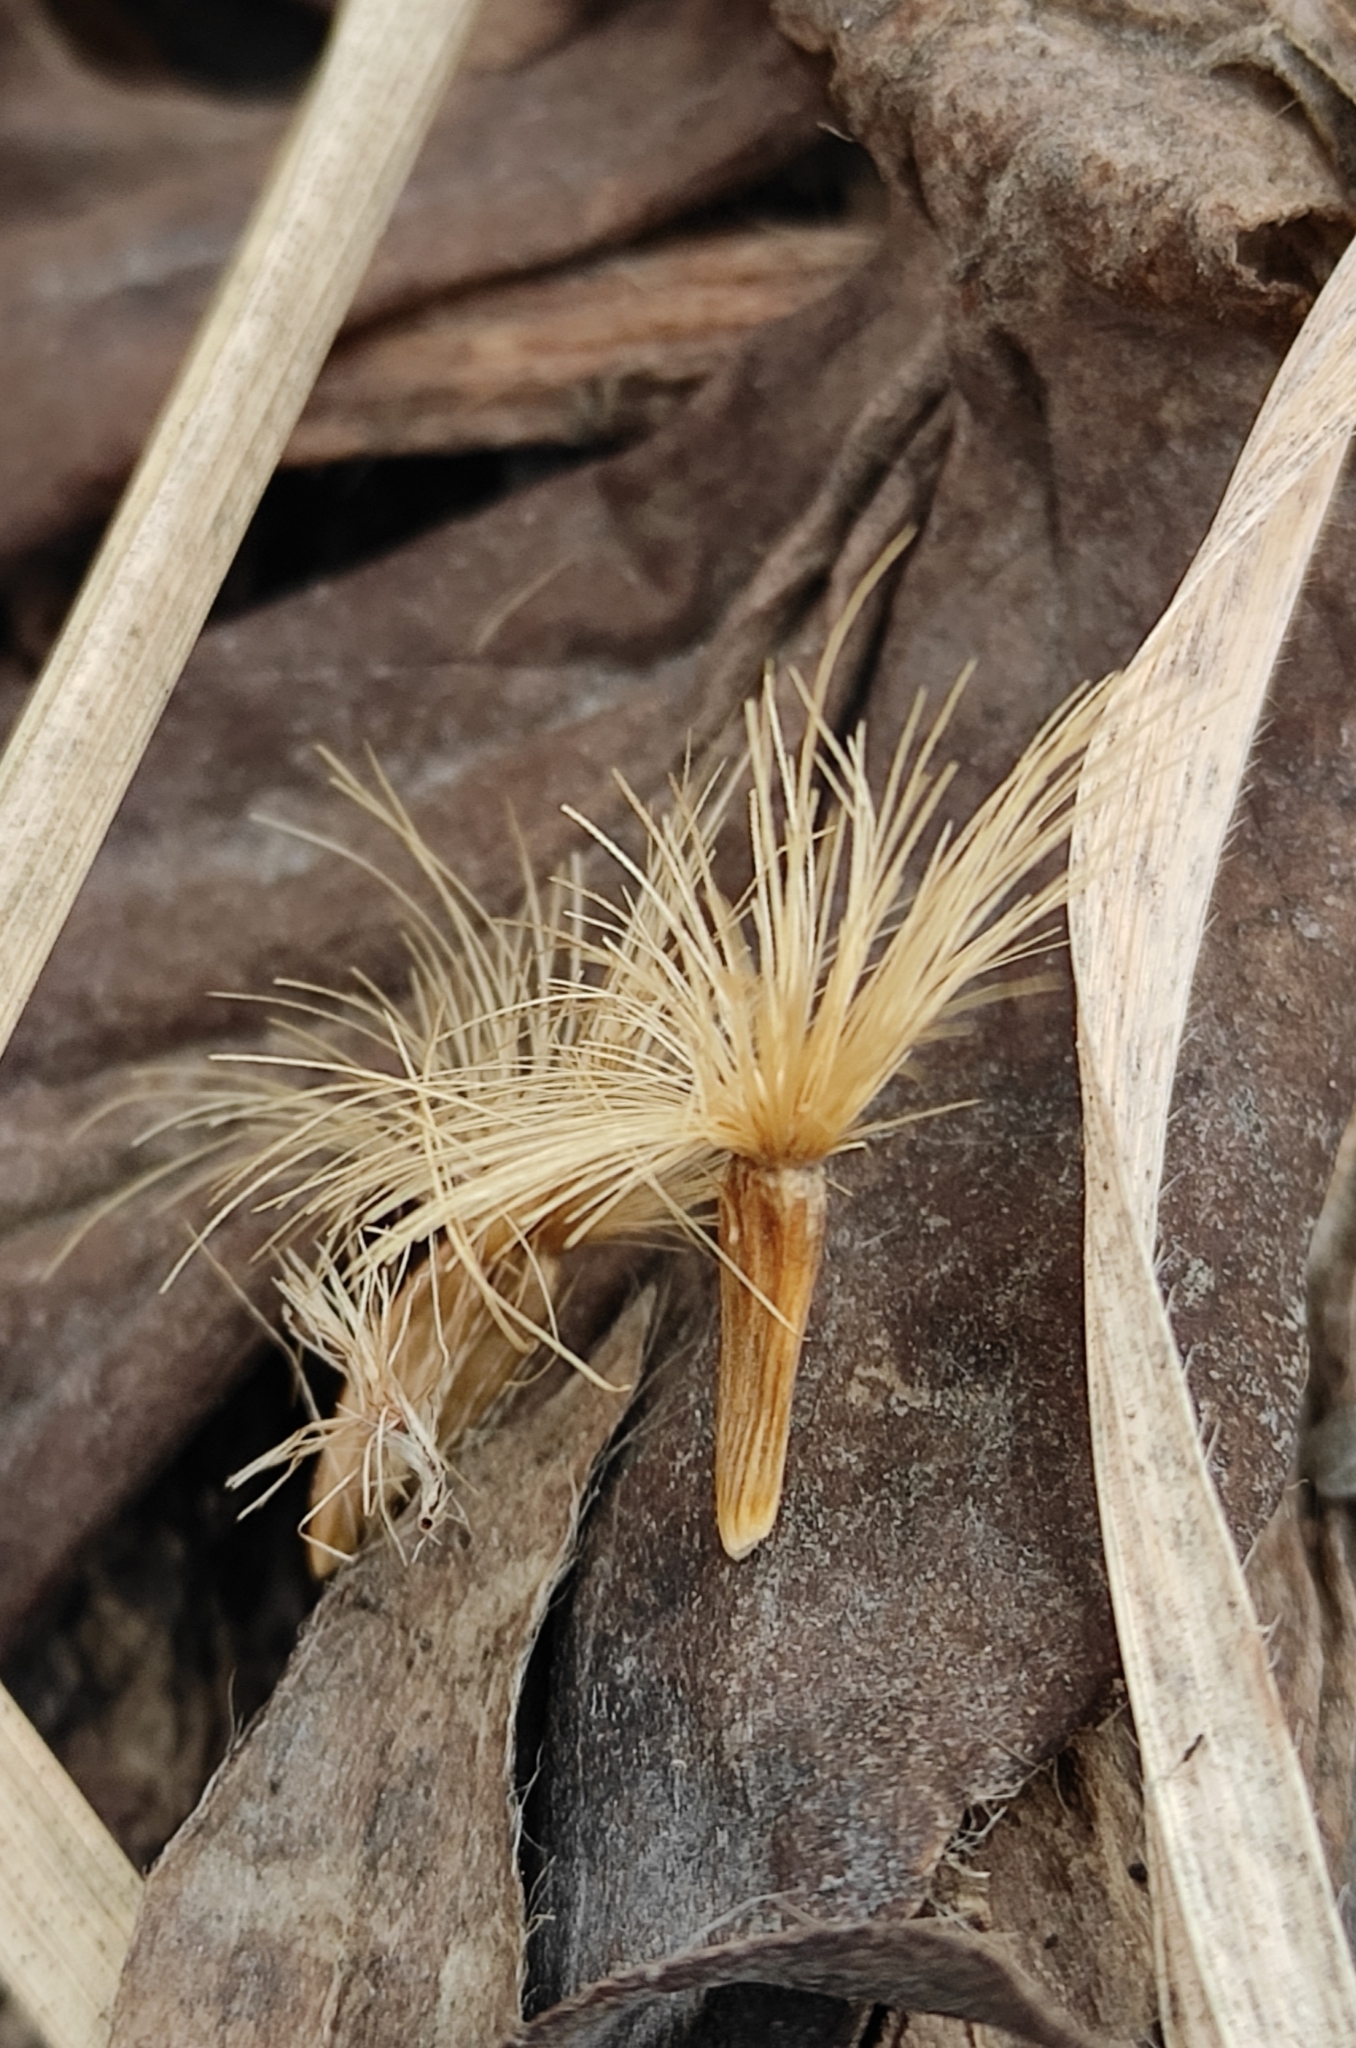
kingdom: Plantae
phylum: Tracheophyta
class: Magnoliopsida
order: Asterales
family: Asteraceae
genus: Serratula
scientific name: Serratula coronata
